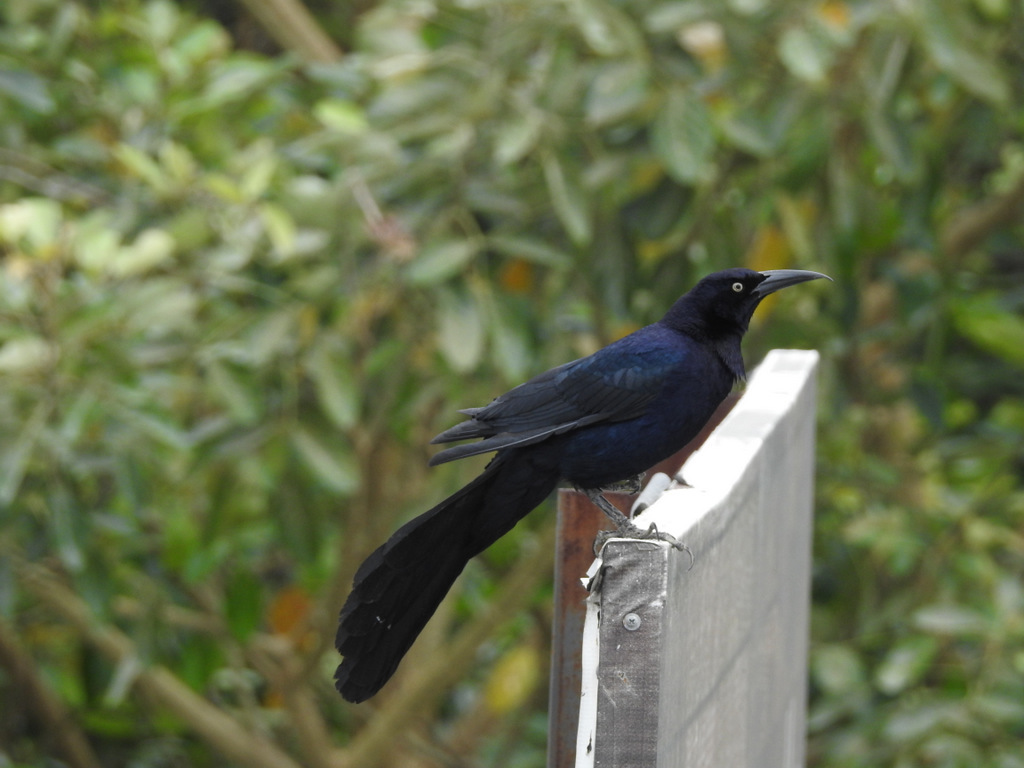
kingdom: Animalia
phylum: Chordata
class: Aves
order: Passeriformes
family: Icteridae
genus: Quiscalus
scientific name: Quiscalus mexicanus
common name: Great-tailed grackle
